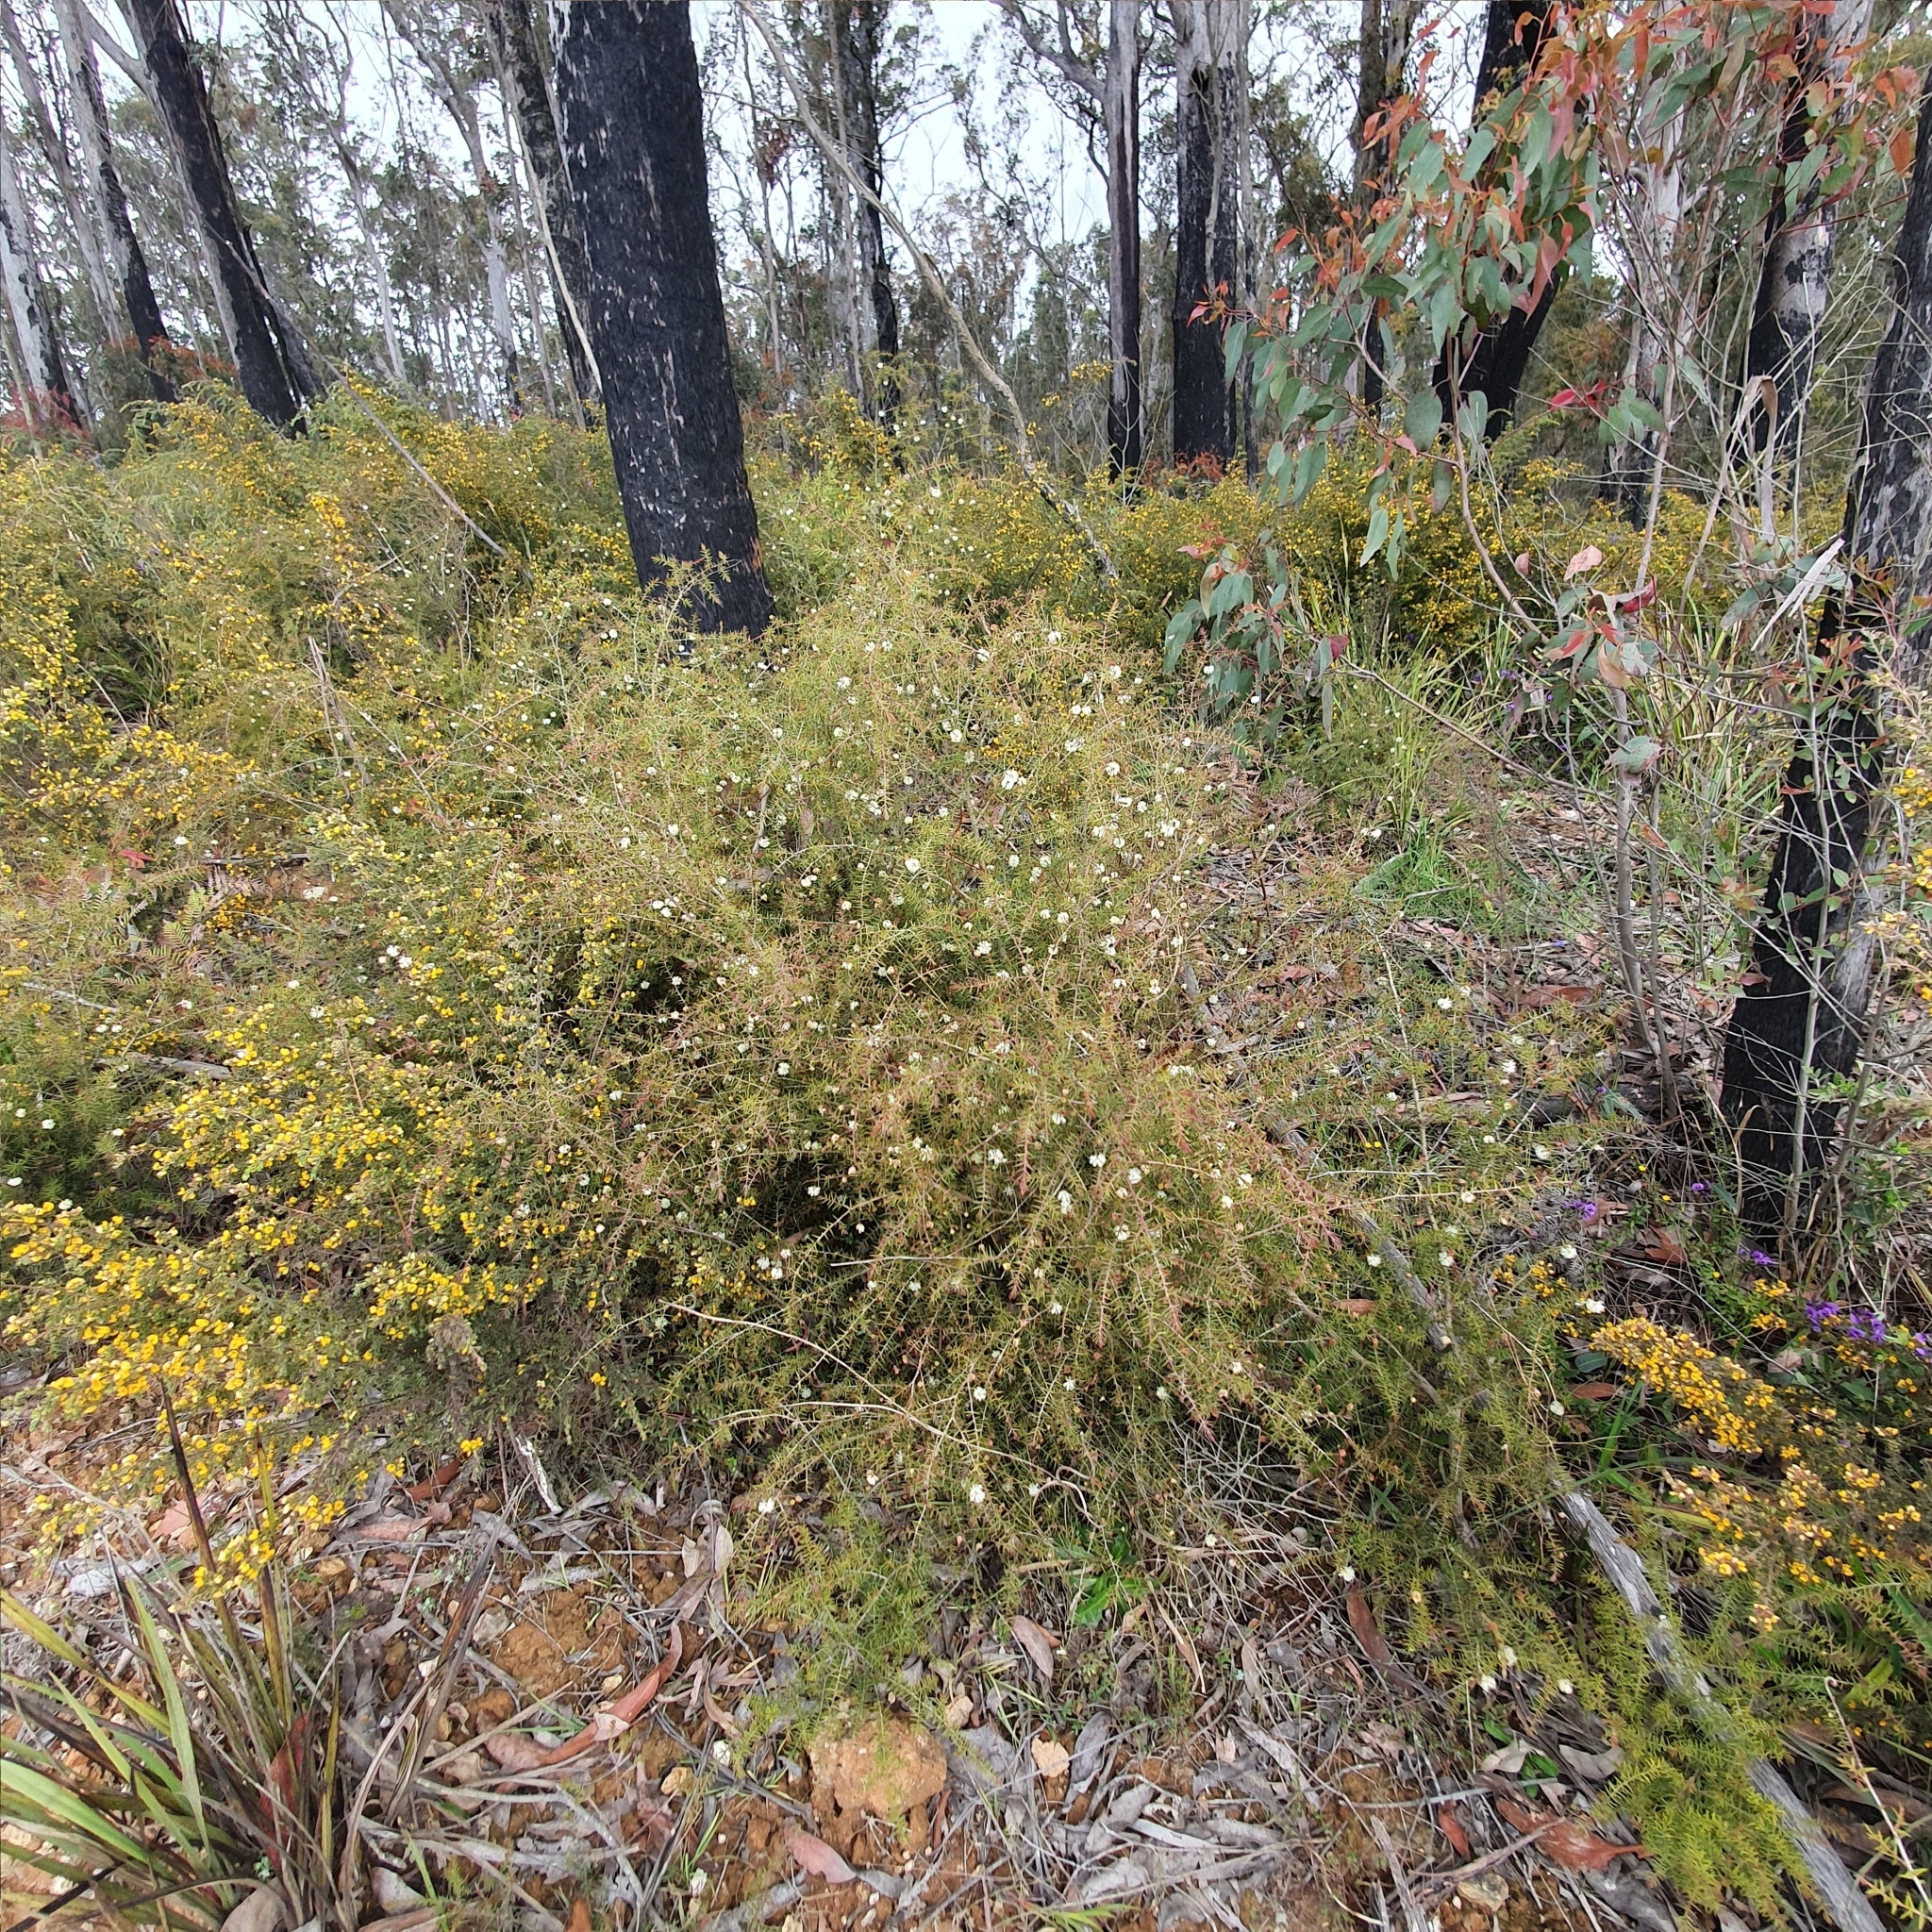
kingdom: Plantae
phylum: Tracheophyta
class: Magnoliopsida
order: Fabales
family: Fabaceae
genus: Acacia
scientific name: Acacia ulicifolia
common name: Juniper wattle
